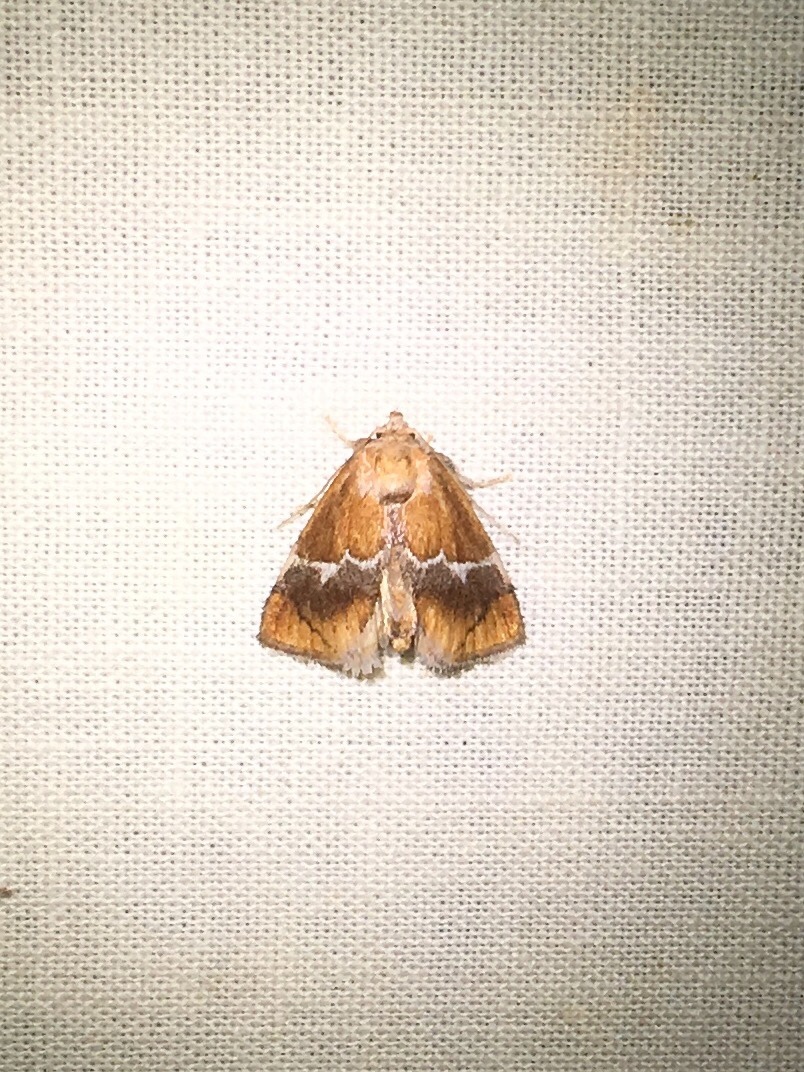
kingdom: Animalia
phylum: Arthropoda
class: Insecta
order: Lepidoptera
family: Limacodidae
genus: Lithacodes
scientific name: Lithacodes fasciola
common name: Yellow-shouldered slug moth
